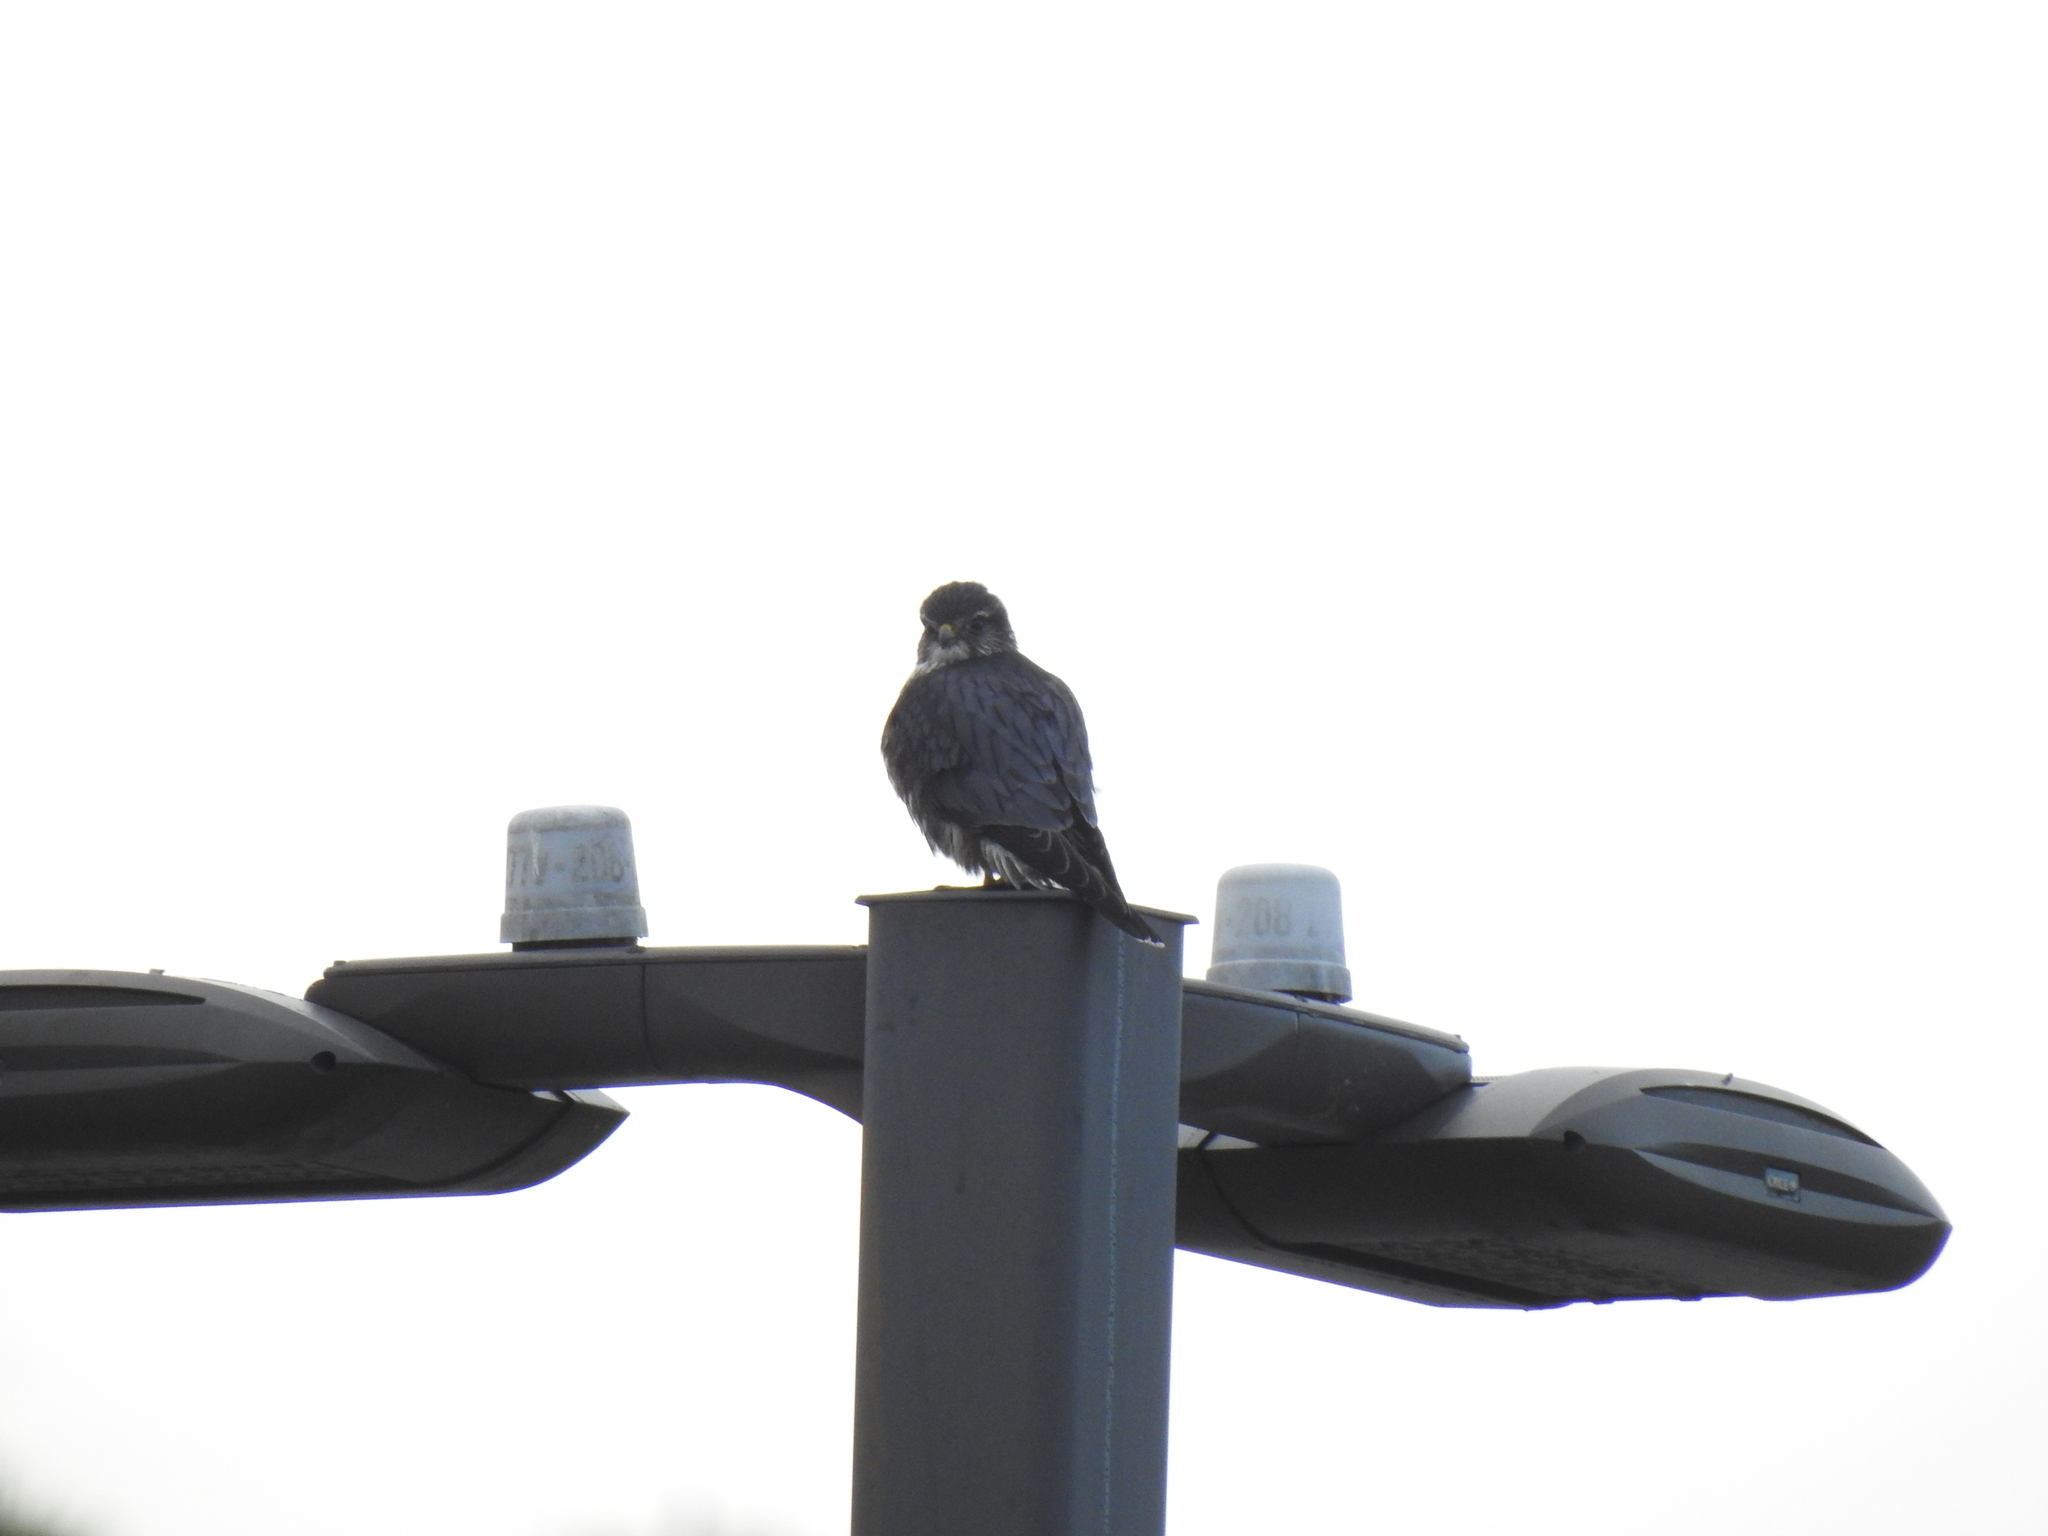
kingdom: Animalia
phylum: Chordata
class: Aves
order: Falconiformes
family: Falconidae
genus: Falco
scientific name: Falco columbarius
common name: Merlin
